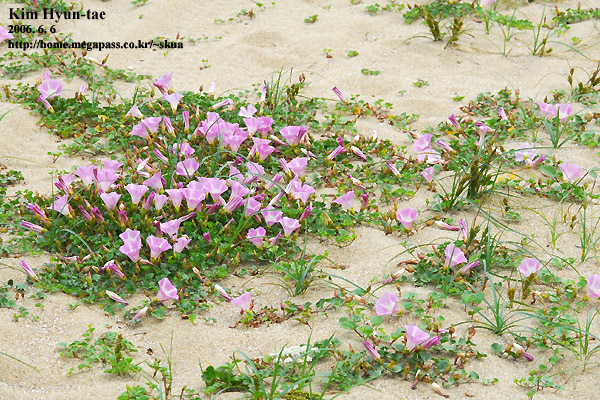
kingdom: Plantae
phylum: Tracheophyta
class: Magnoliopsida
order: Solanales
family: Convolvulaceae
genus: Calystegia
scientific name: Calystegia soldanella
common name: Sea bindweed
